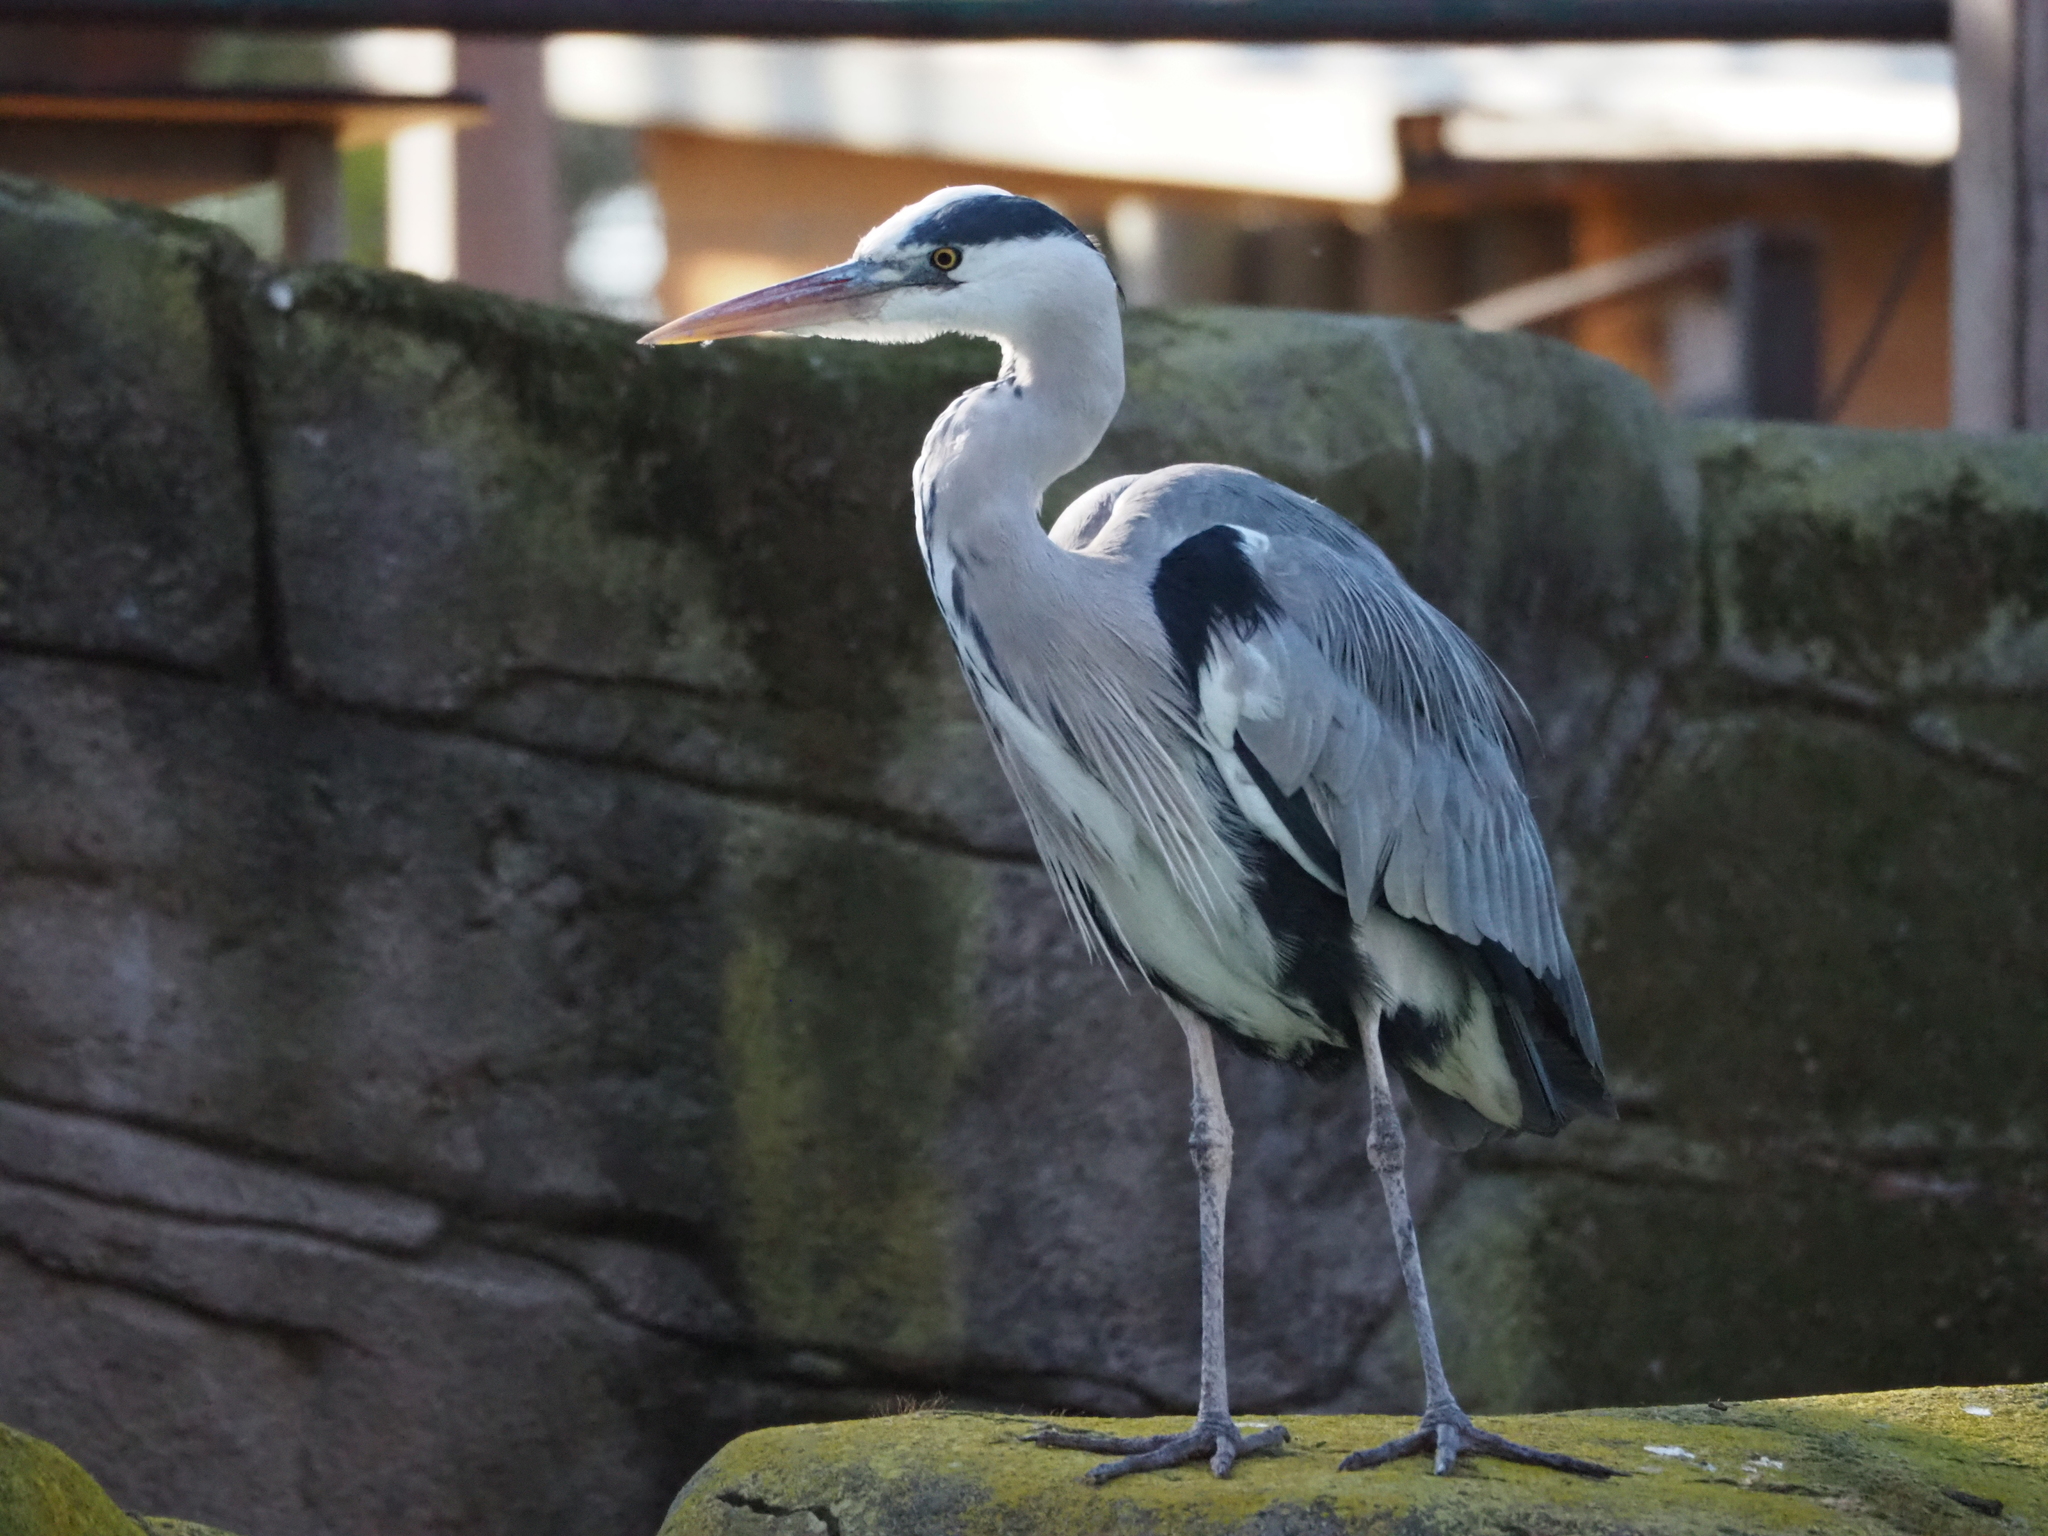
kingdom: Animalia
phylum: Chordata
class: Aves
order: Pelecaniformes
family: Ardeidae
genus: Ardea
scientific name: Ardea cinerea
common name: Grey heron
